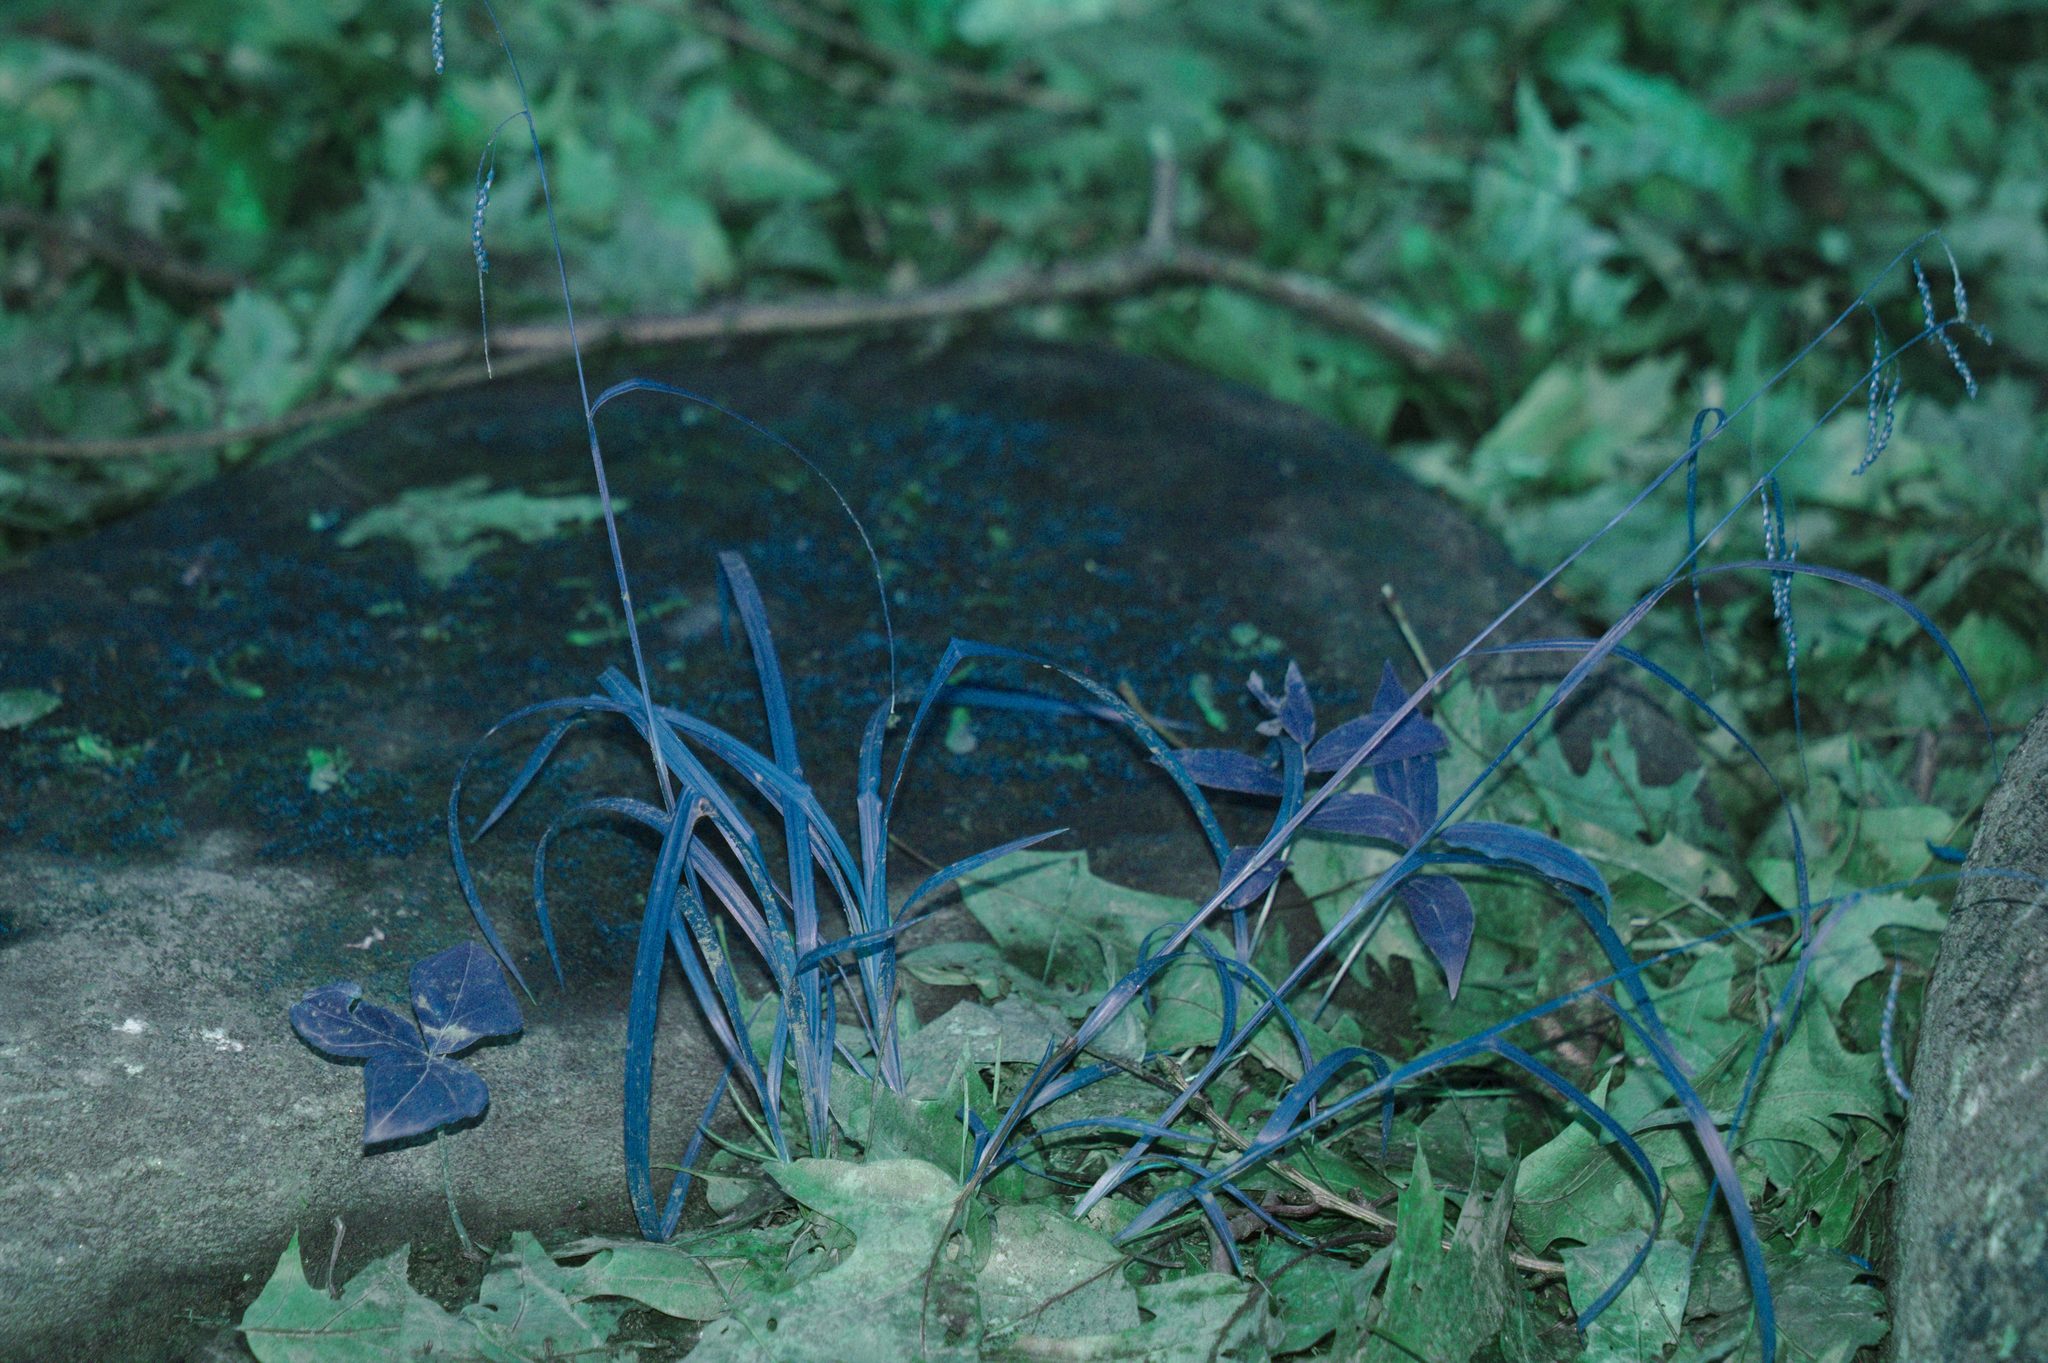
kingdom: Plantae
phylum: Tracheophyta
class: Liliopsida
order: Poales
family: Cyperaceae
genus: Carex
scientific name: Carex gracillima
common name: Graceful sedge
